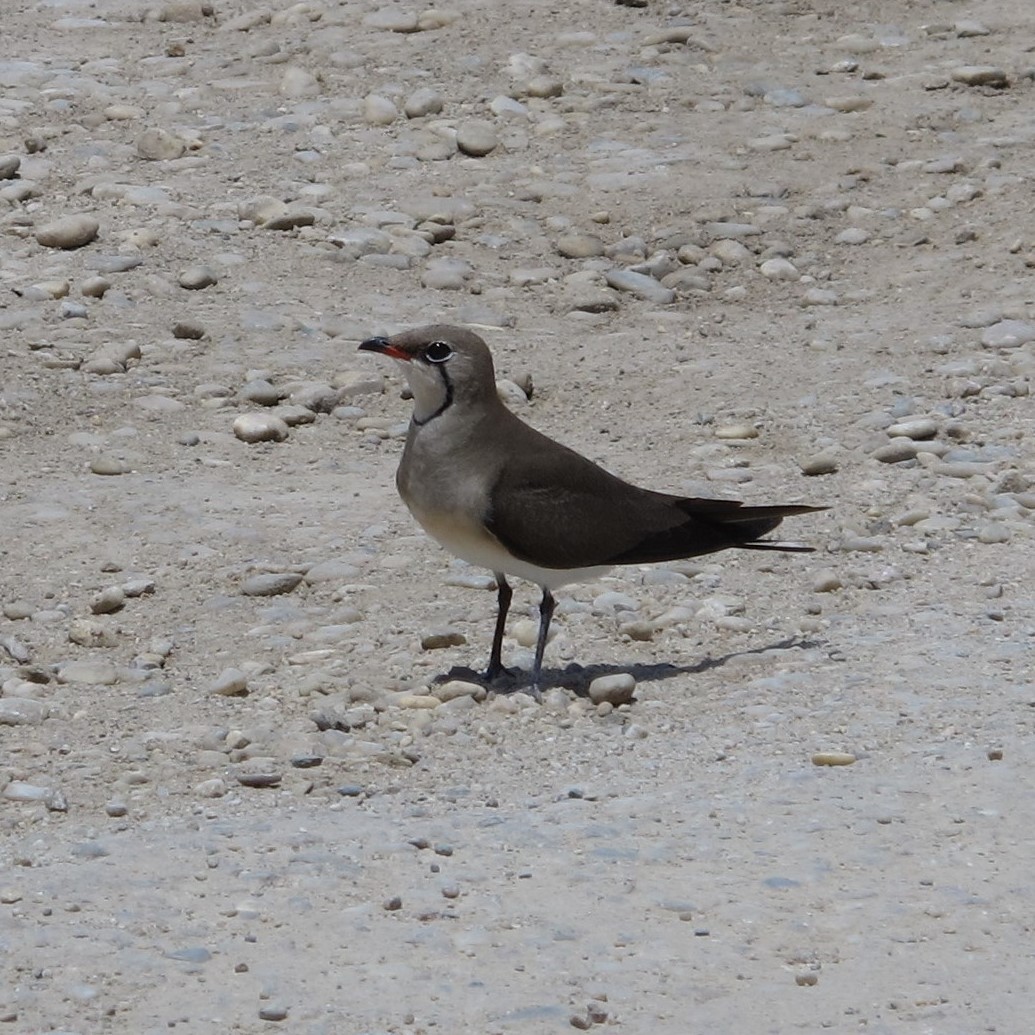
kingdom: Animalia
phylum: Chordata
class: Aves
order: Charadriiformes
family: Glareolidae
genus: Glareola
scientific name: Glareola pratincola
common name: Collared pratincole
